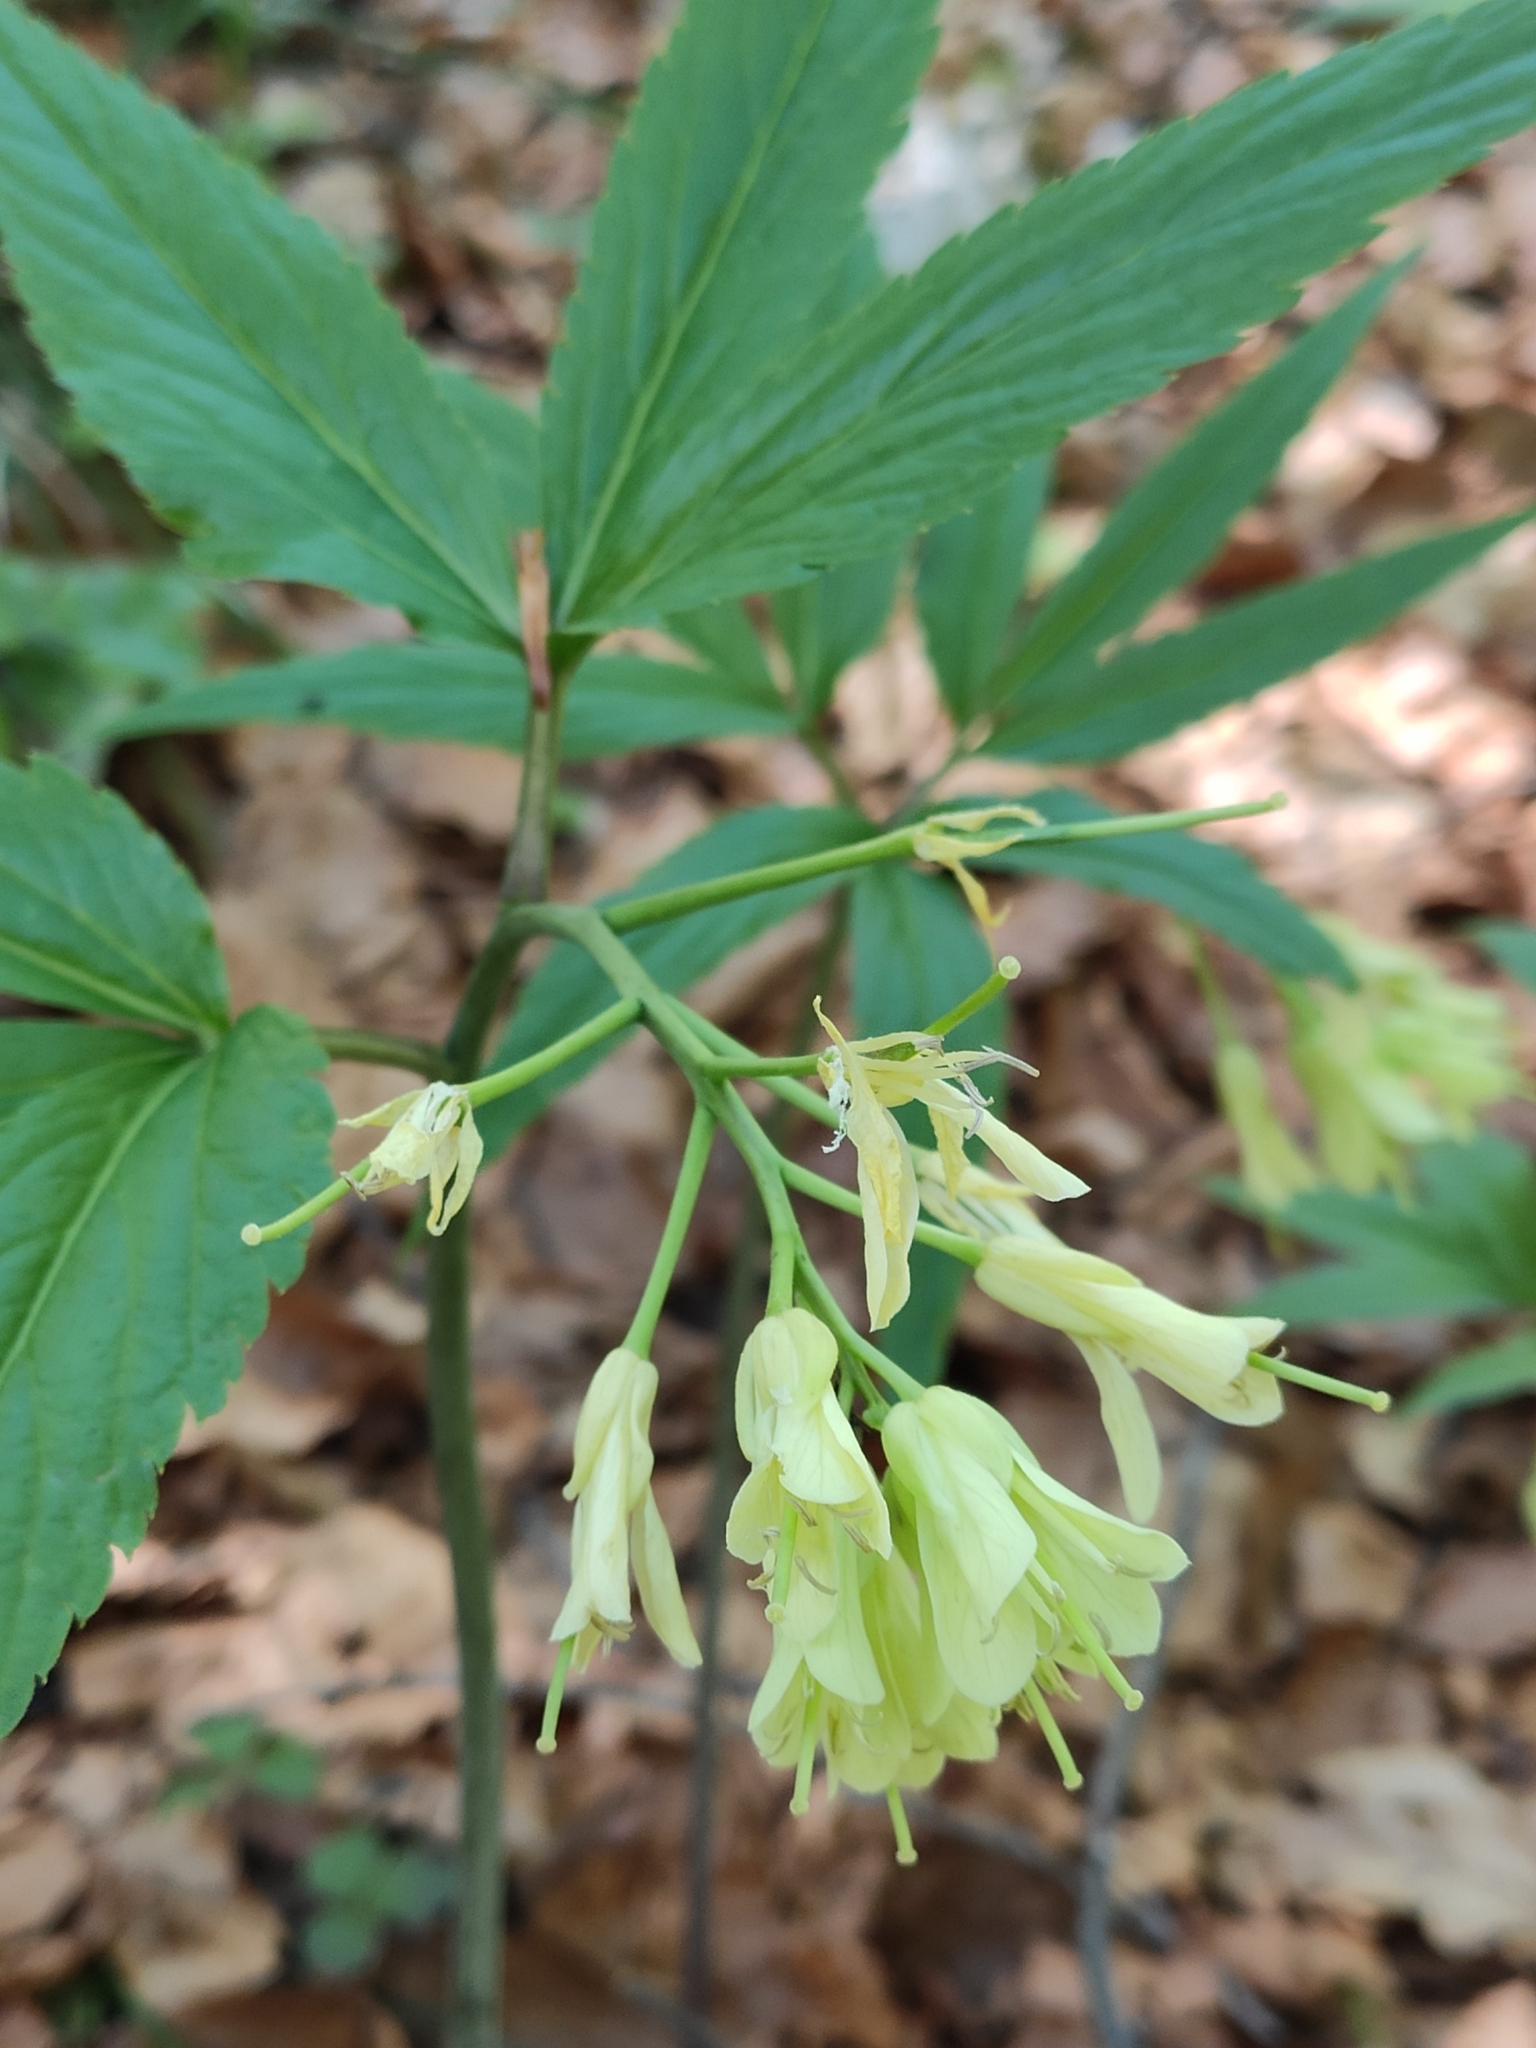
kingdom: Plantae
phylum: Tracheophyta
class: Magnoliopsida
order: Brassicales
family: Brassicaceae
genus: Cardamine
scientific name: Cardamine enneaphyllos
